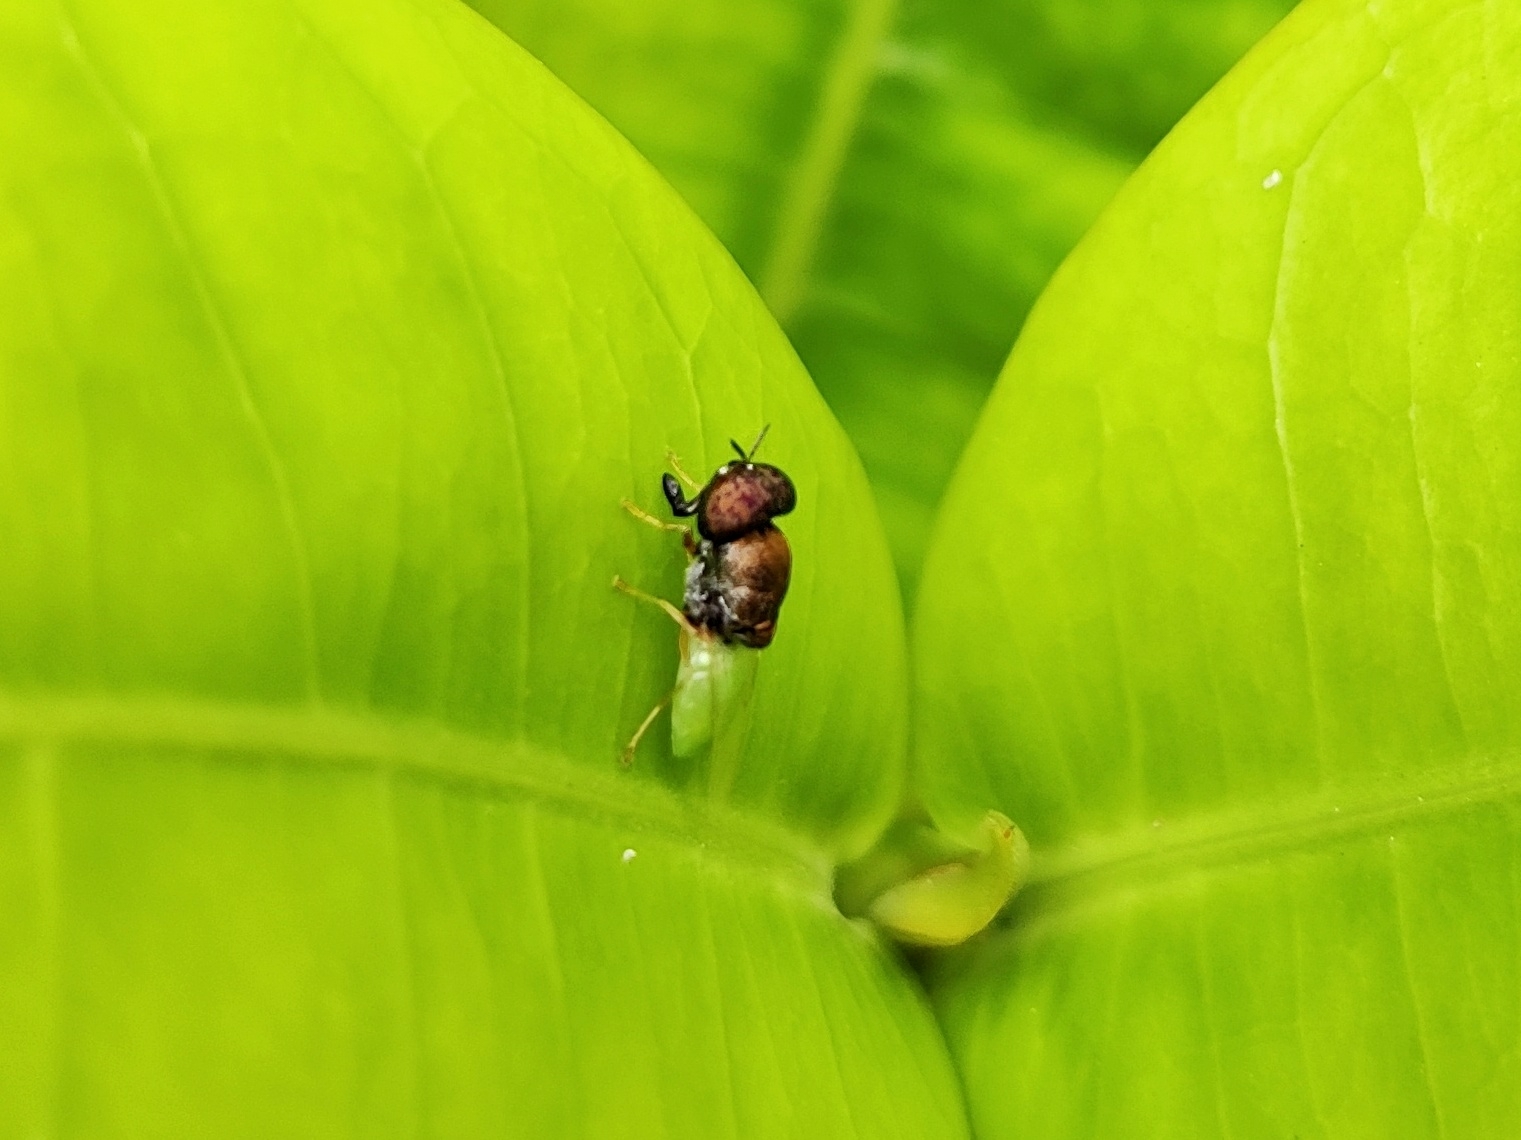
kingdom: Animalia
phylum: Arthropoda
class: Insecta
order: Diptera
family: Stratiomyidae
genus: Oplodontha
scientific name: Oplodontha rubrithorax
